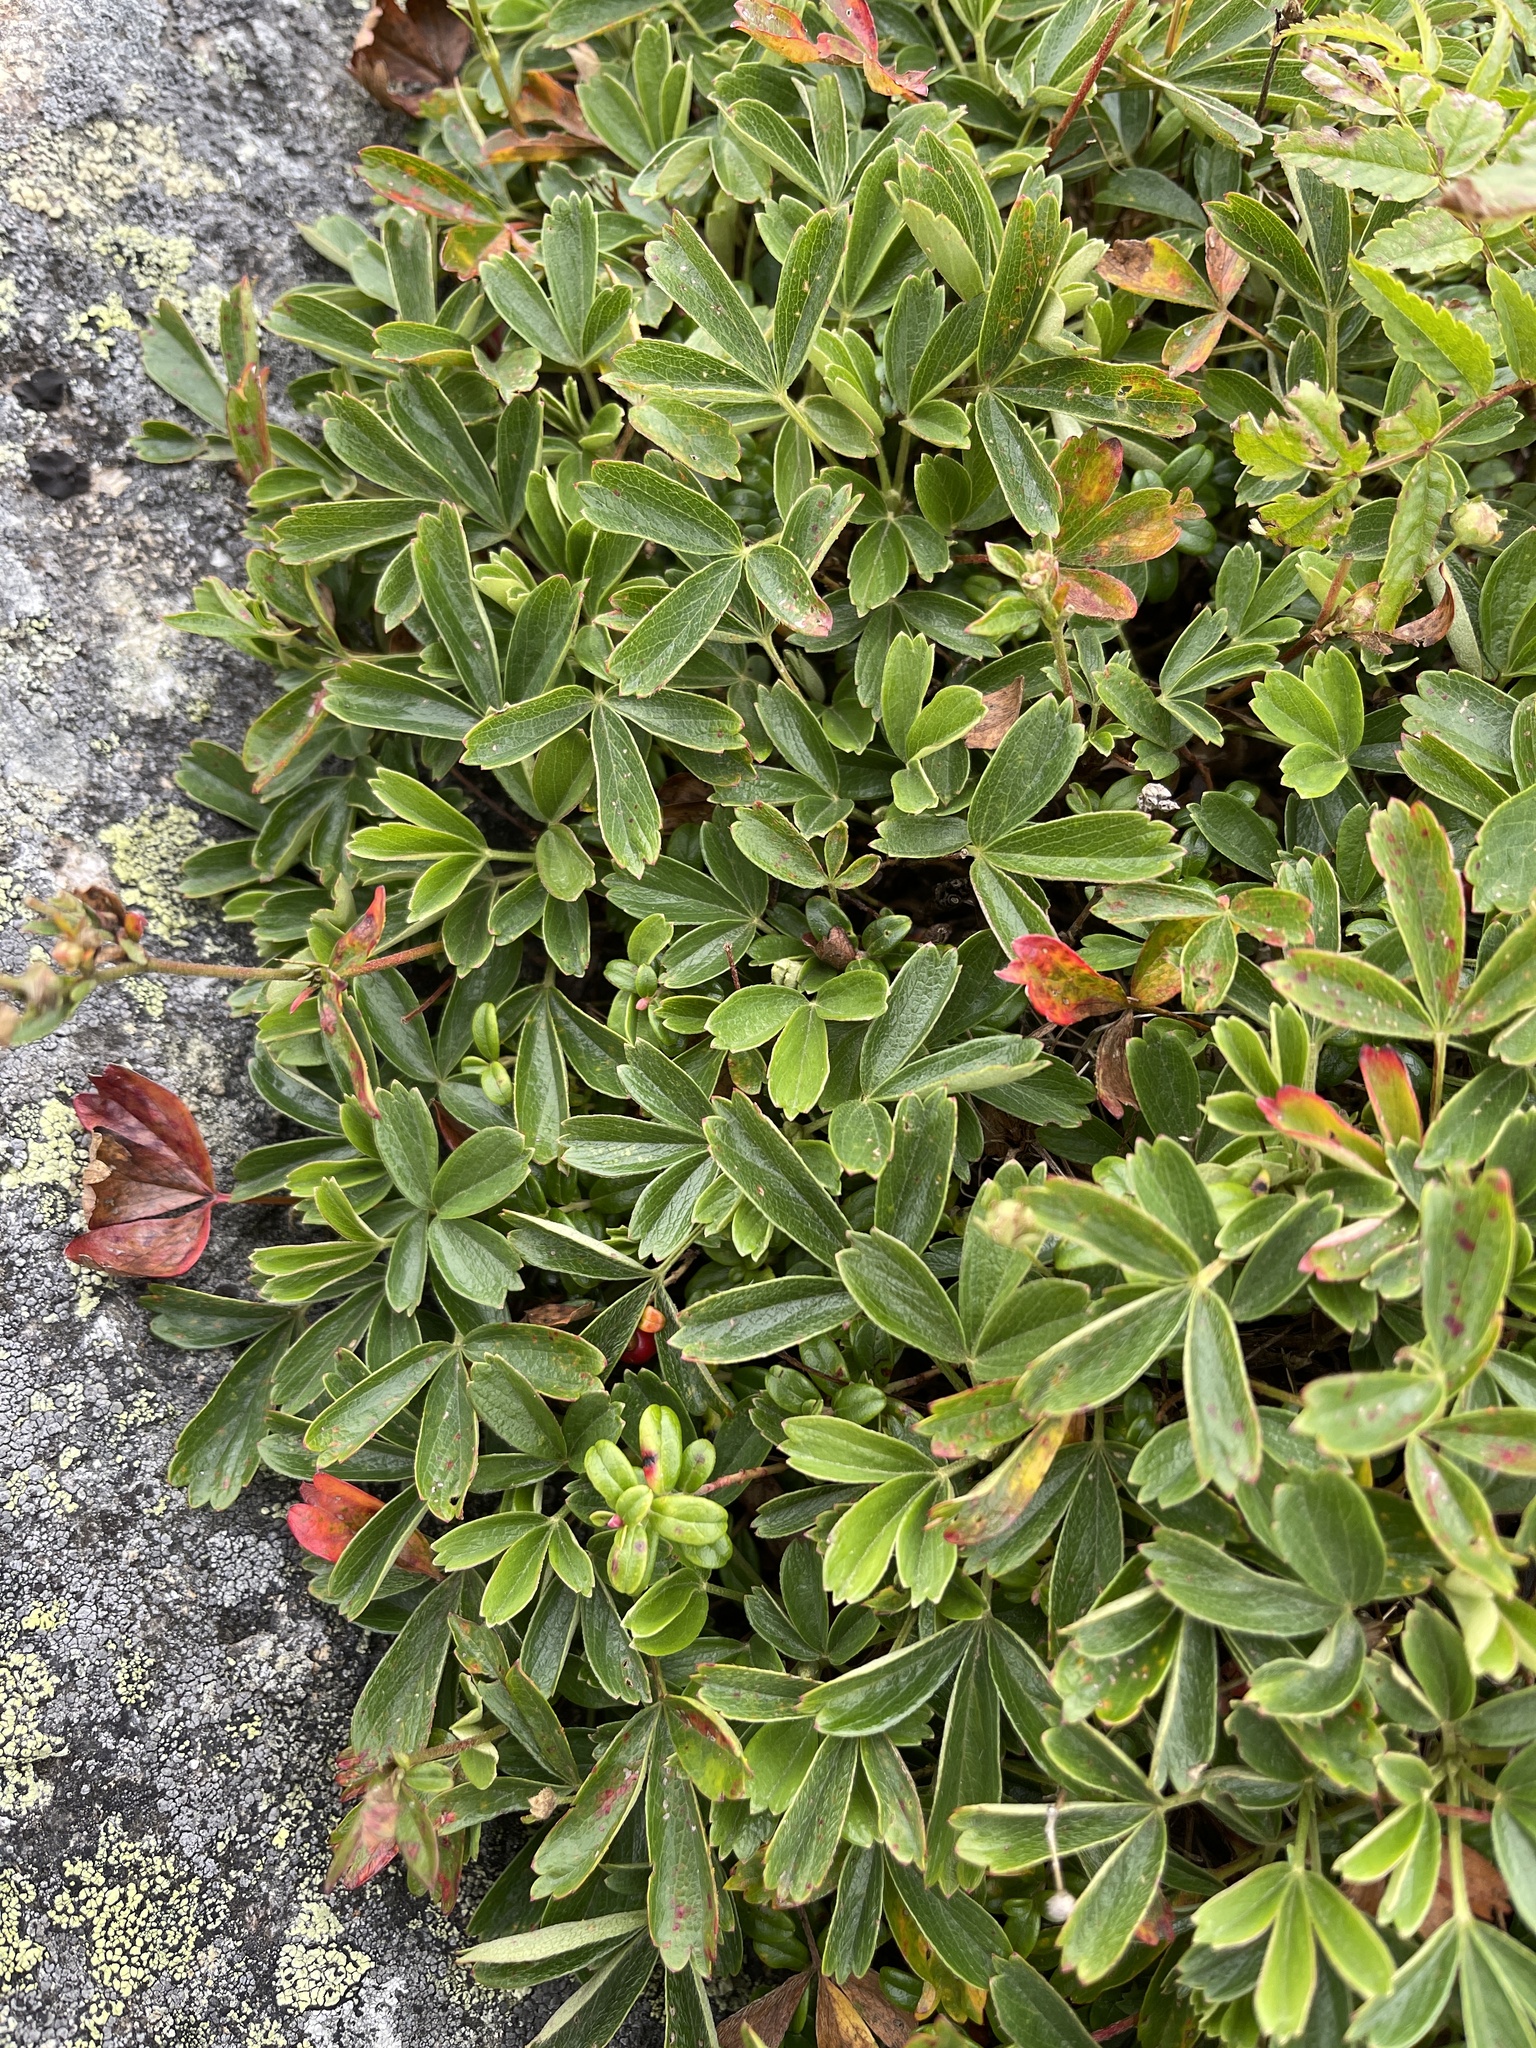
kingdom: Plantae
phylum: Tracheophyta
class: Magnoliopsida
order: Rosales
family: Rosaceae
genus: Sibbaldia
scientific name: Sibbaldia tridentata
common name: Three-toothed cinquefoil
